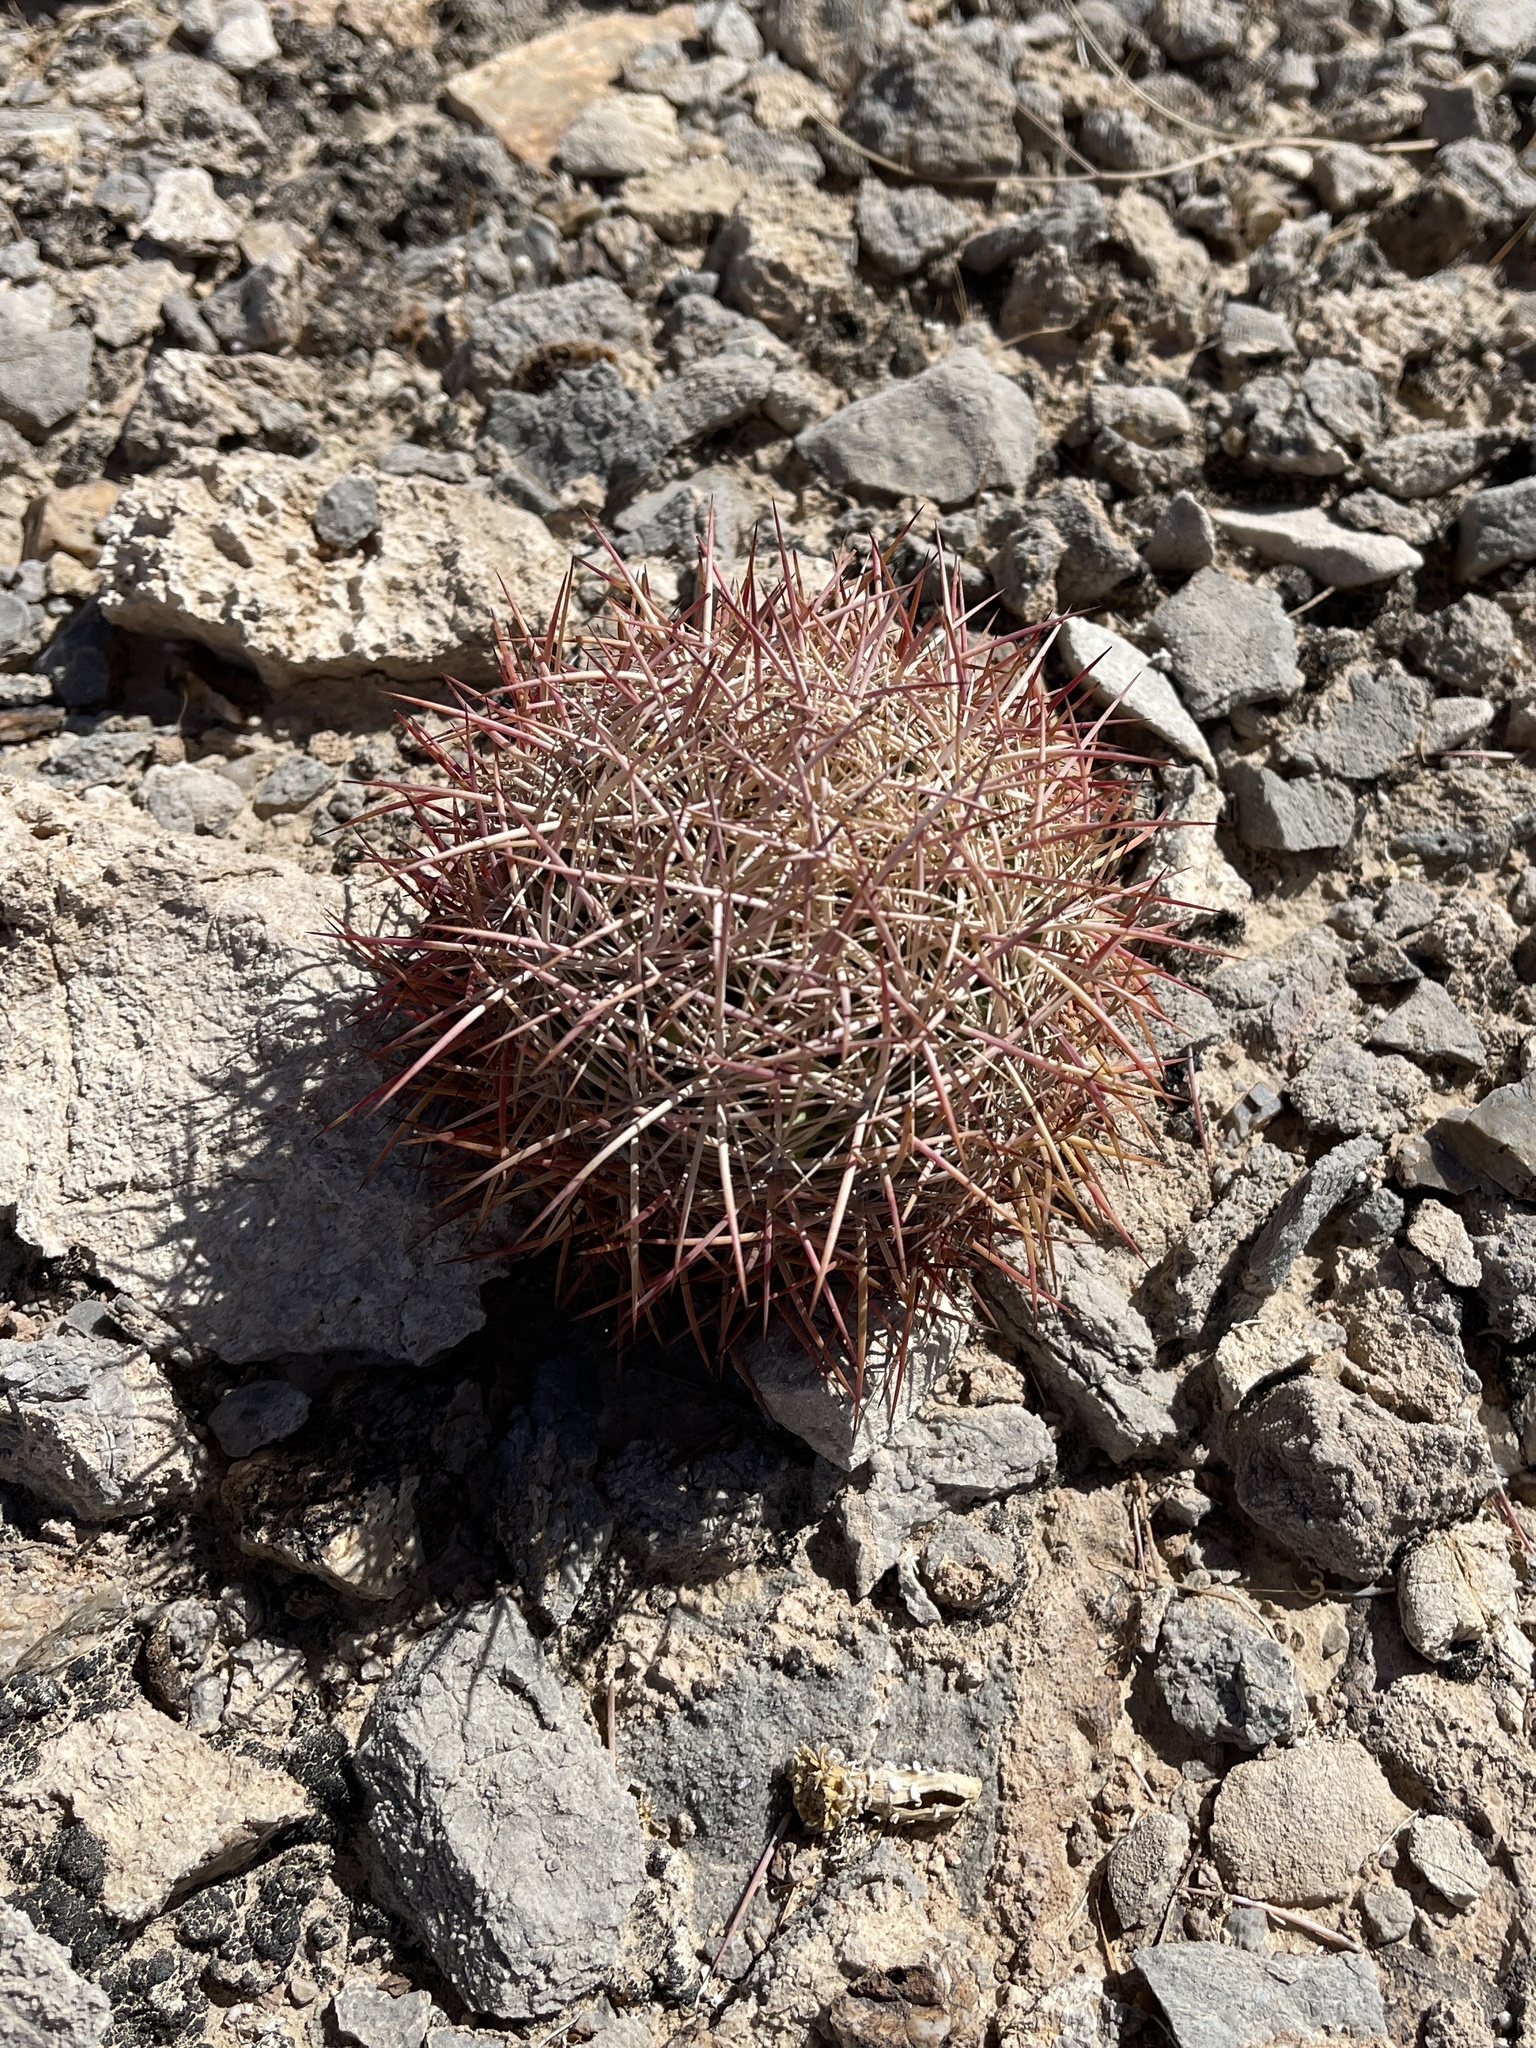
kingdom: Plantae
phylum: Tracheophyta
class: Magnoliopsida
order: Caryophyllales
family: Cactaceae
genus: Sclerocactus
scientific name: Sclerocactus johnsonii
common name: Eight-spine fishhook cactus
